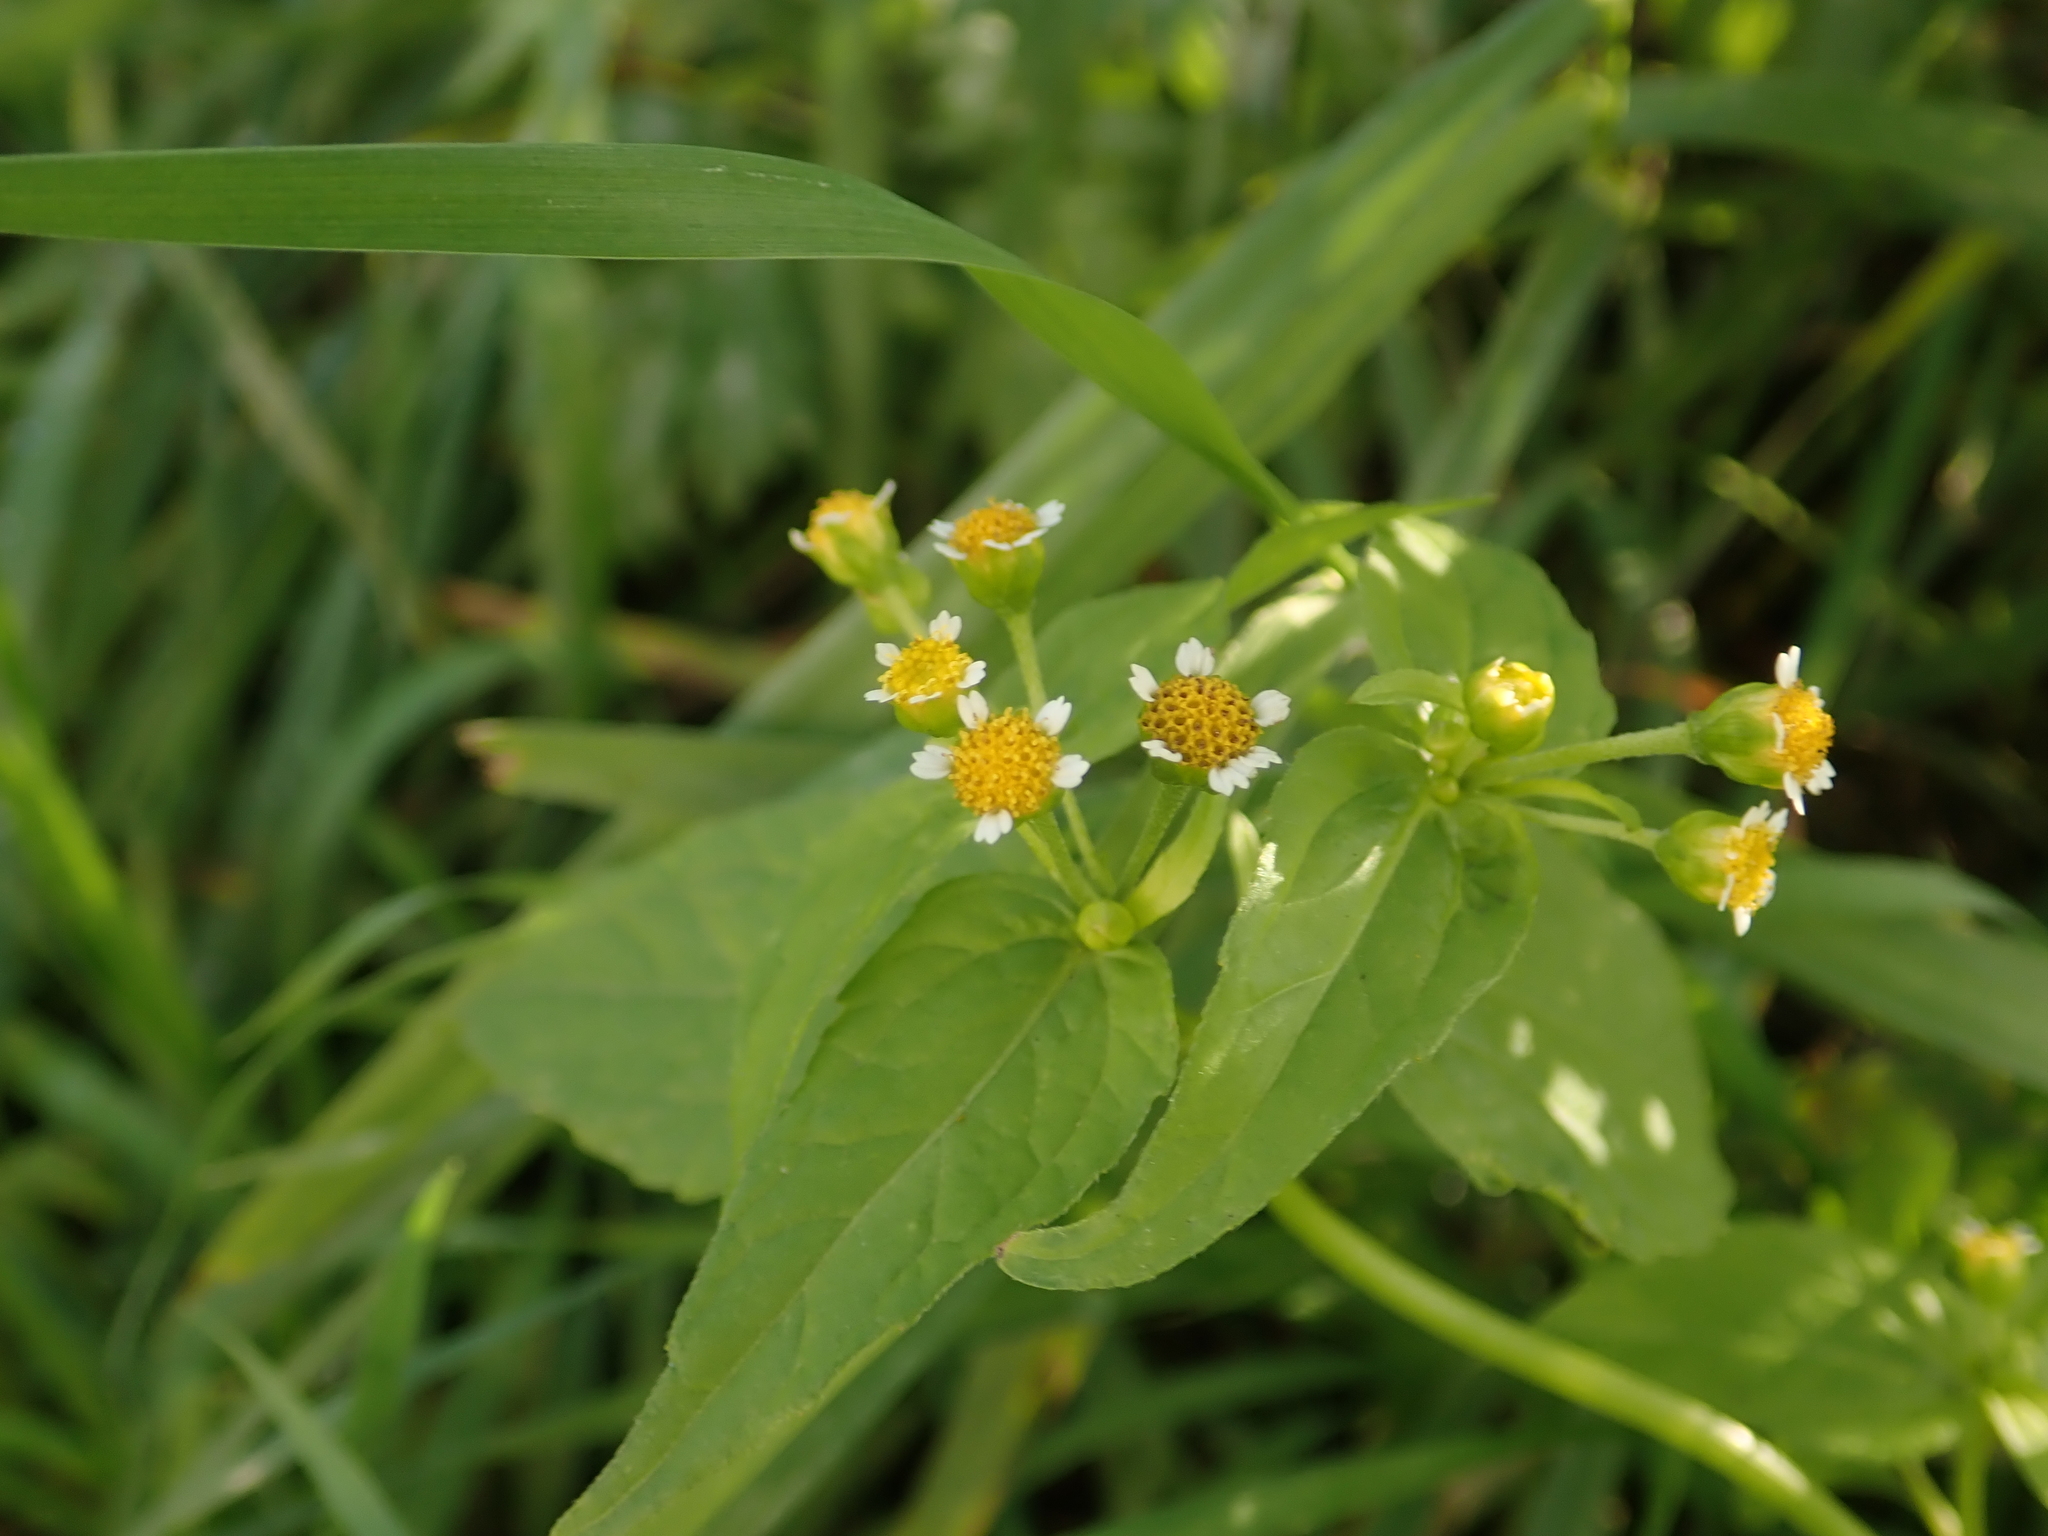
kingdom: Plantae
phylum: Tracheophyta
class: Magnoliopsida
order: Asterales
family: Asteraceae
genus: Galinsoga
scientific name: Galinsoga parviflora
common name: Gallant soldier
